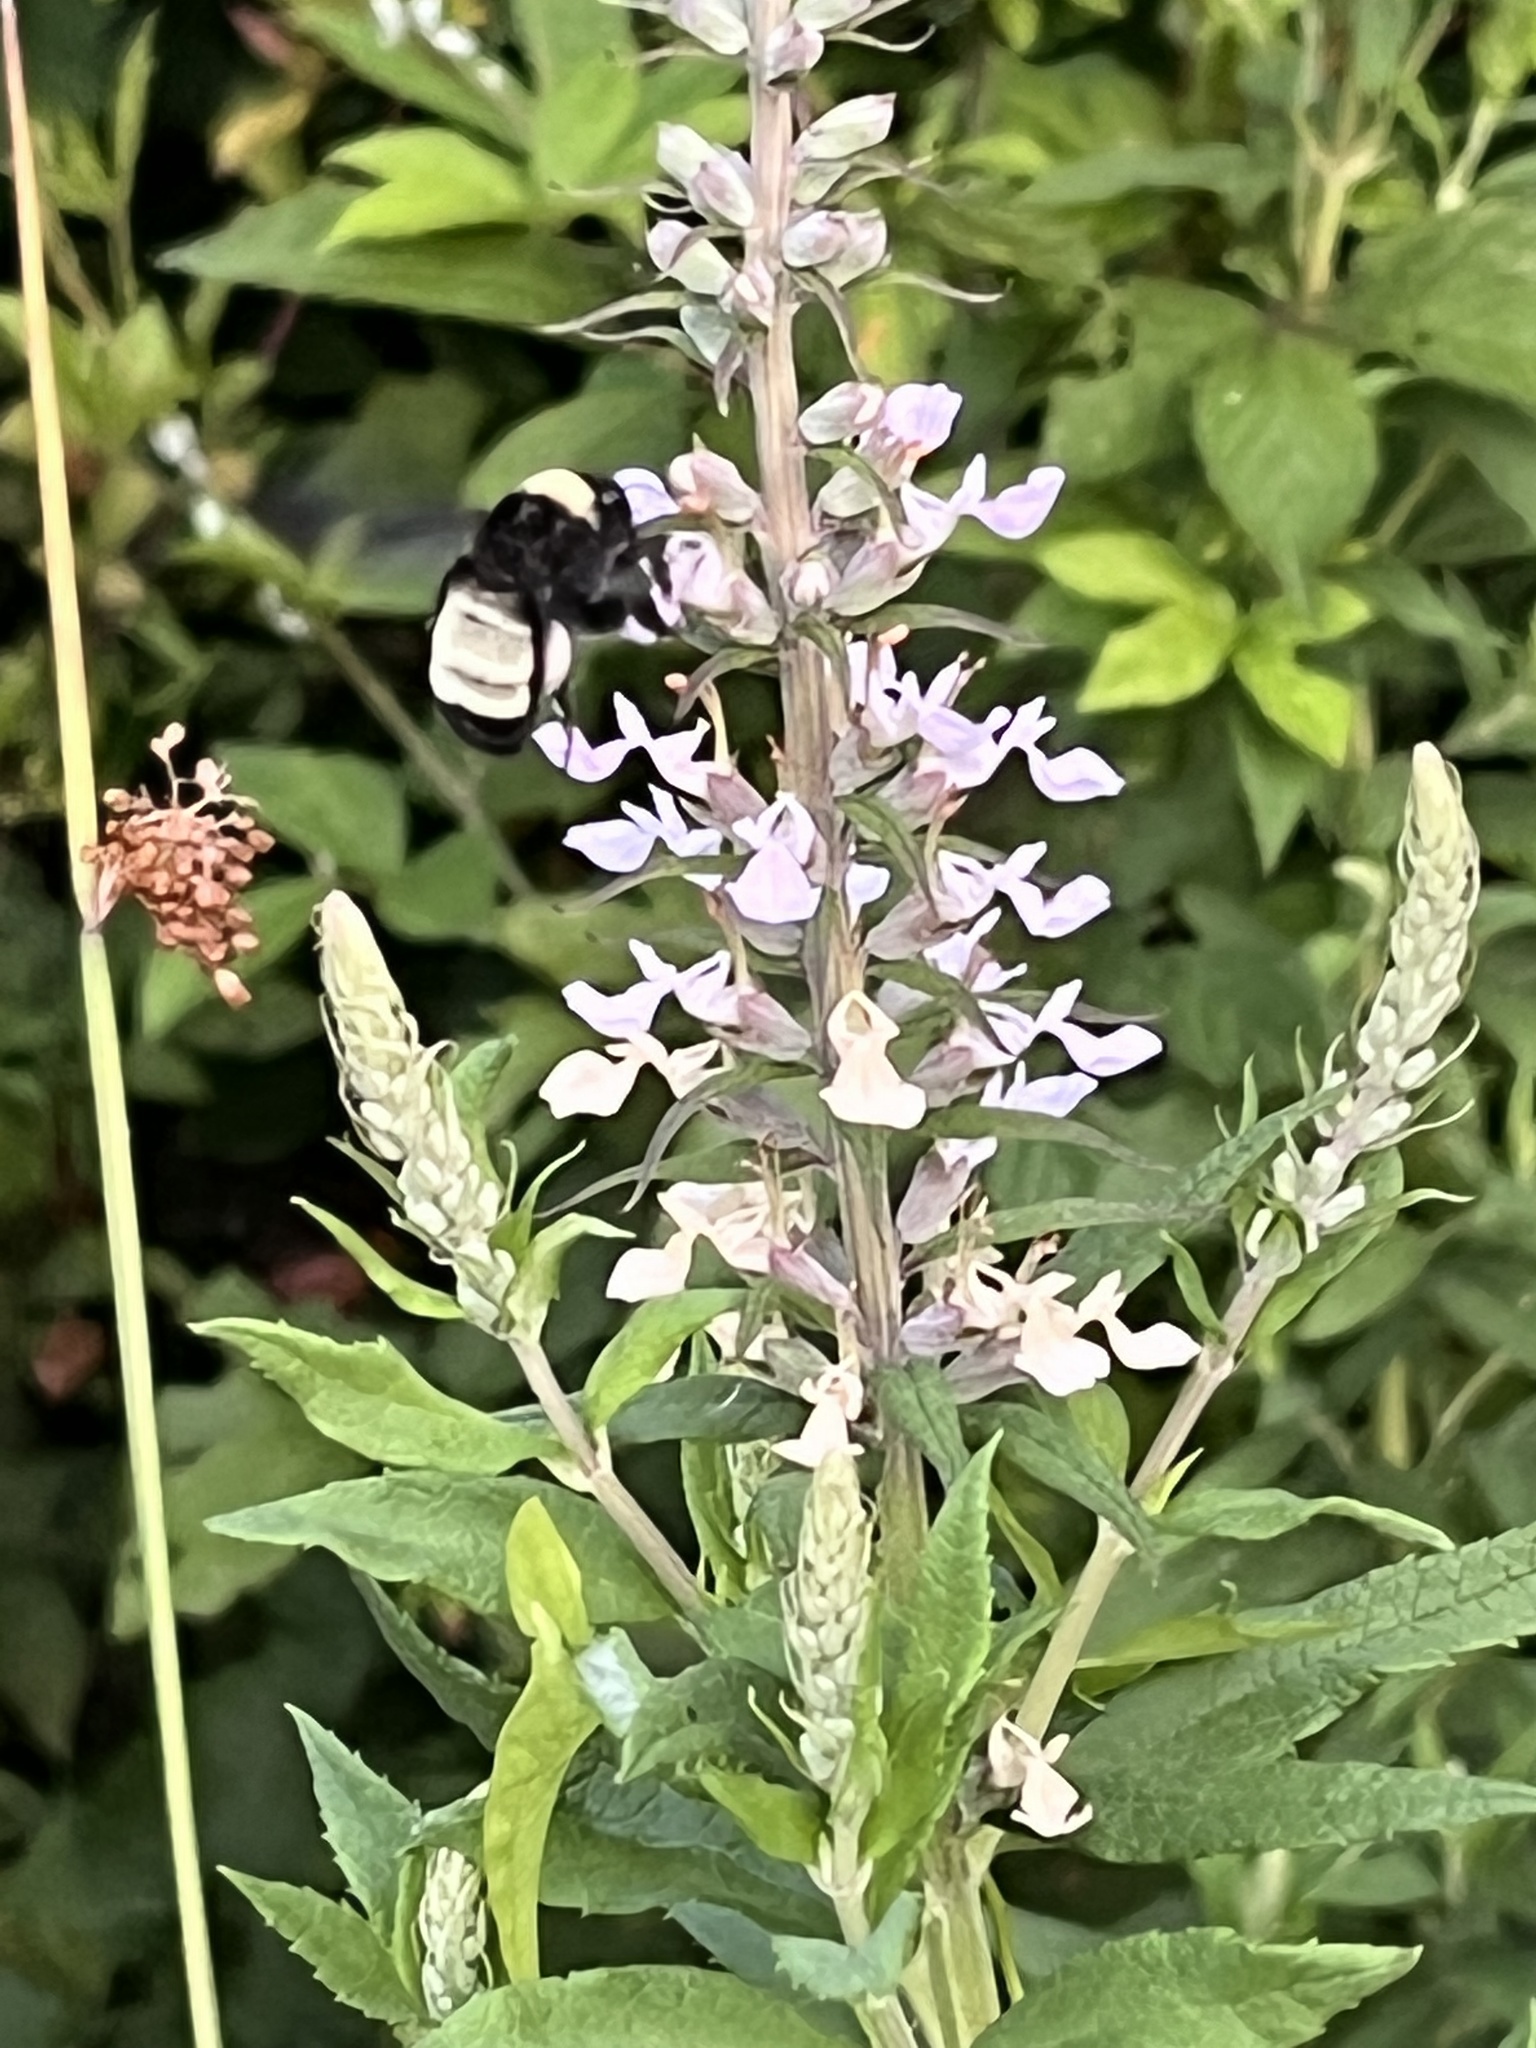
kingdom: Animalia
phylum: Arthropoda
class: Insecta
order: Hymenoptera
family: Apidae
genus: Bombus
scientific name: Bombus pensylvanicus
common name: Bumble bee
